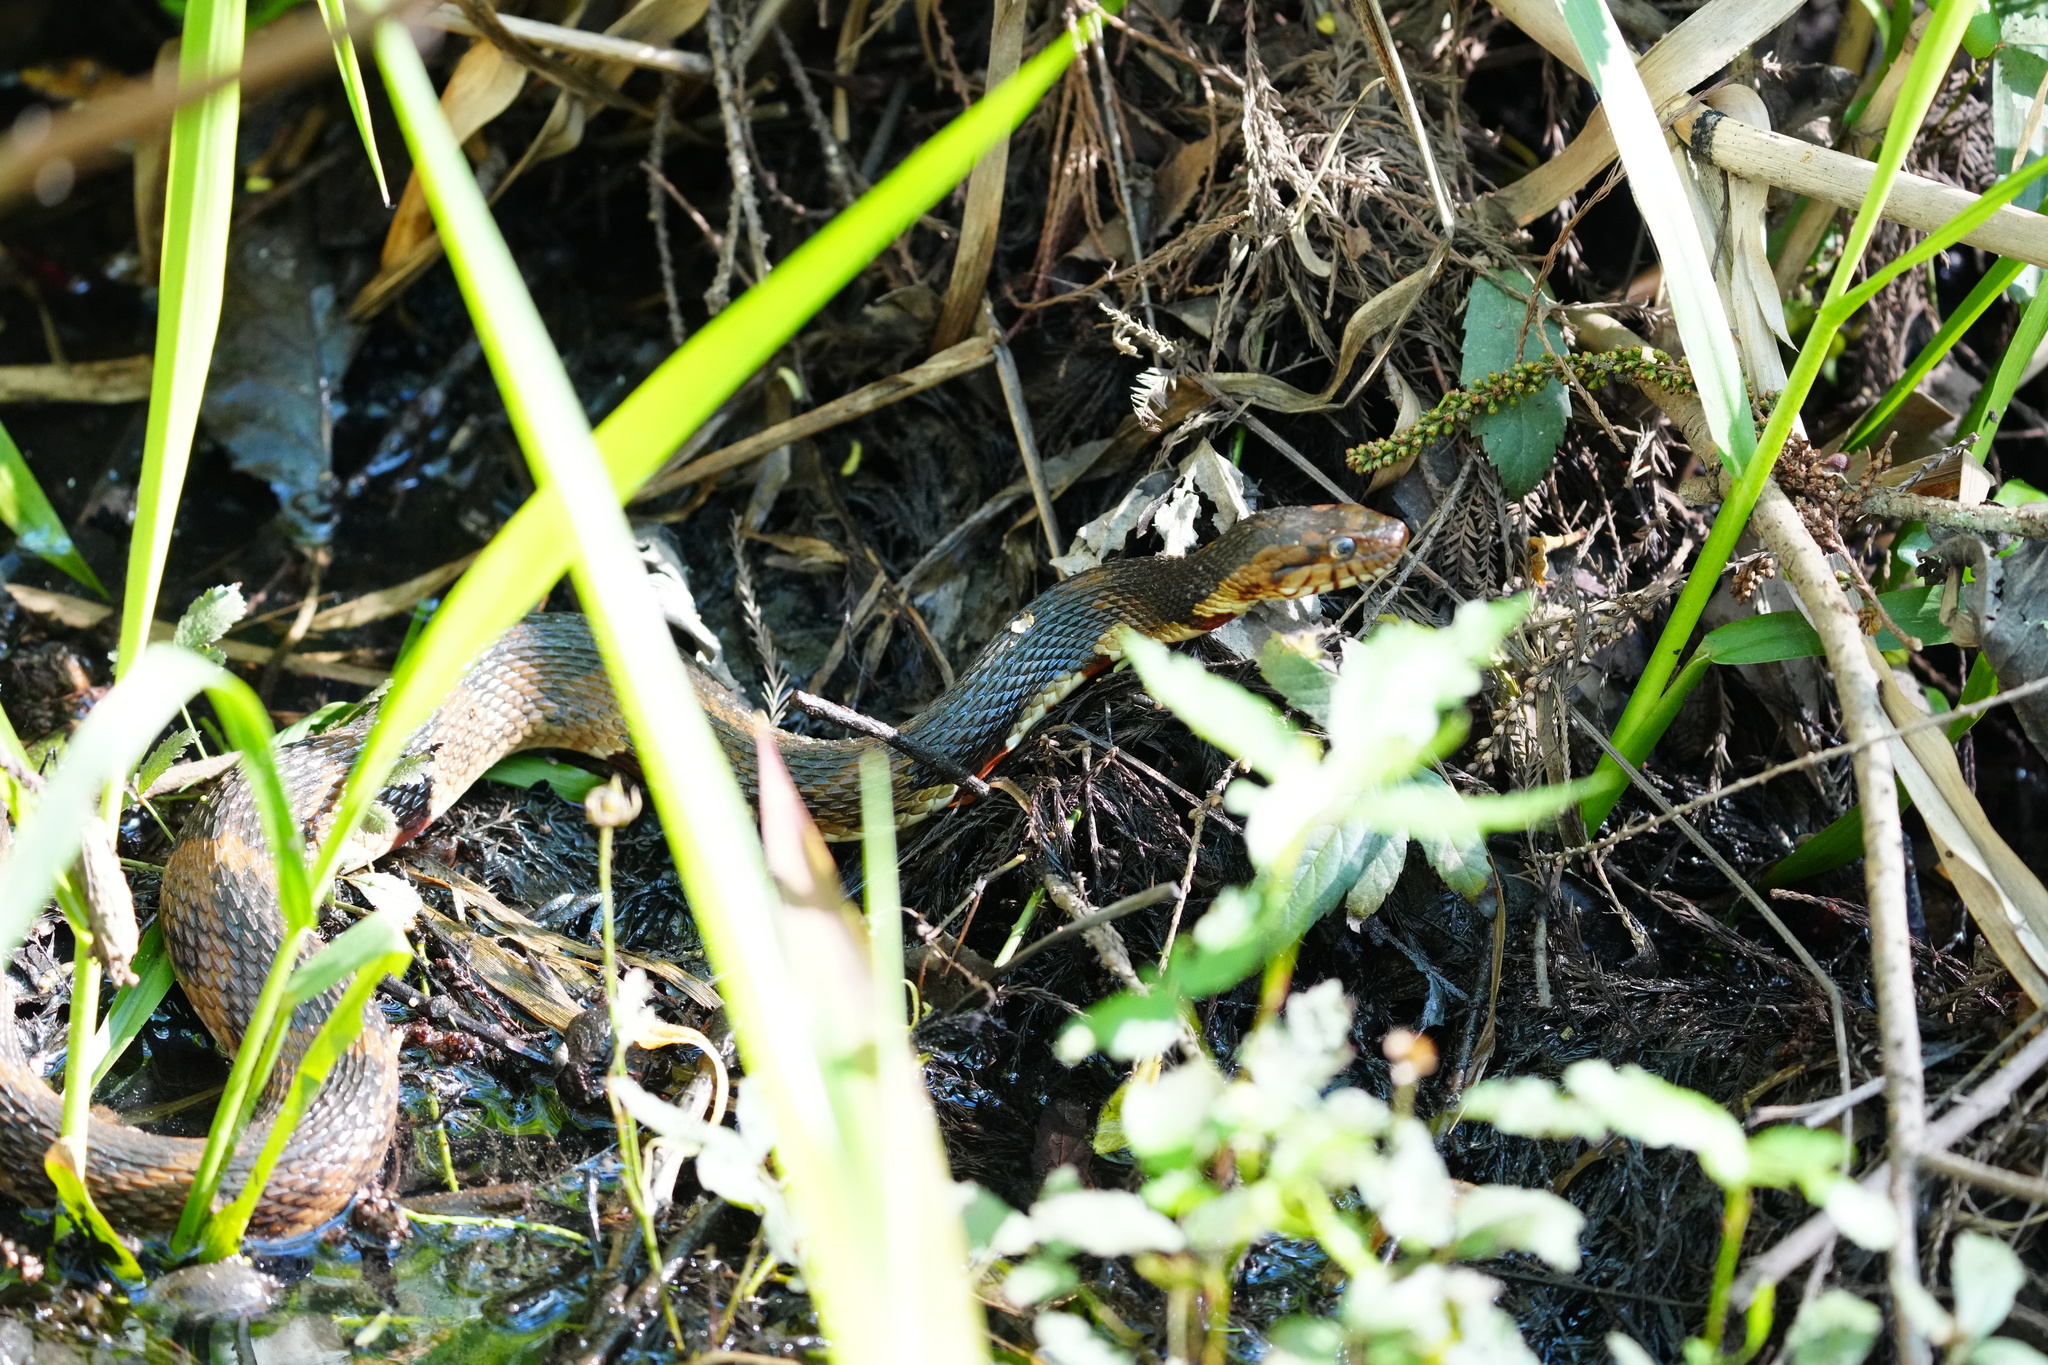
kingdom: Animalia
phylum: Chordata
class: Squamata
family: Colubridae
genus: Nerodia
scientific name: Nerodia fasciata
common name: Southern water snake
